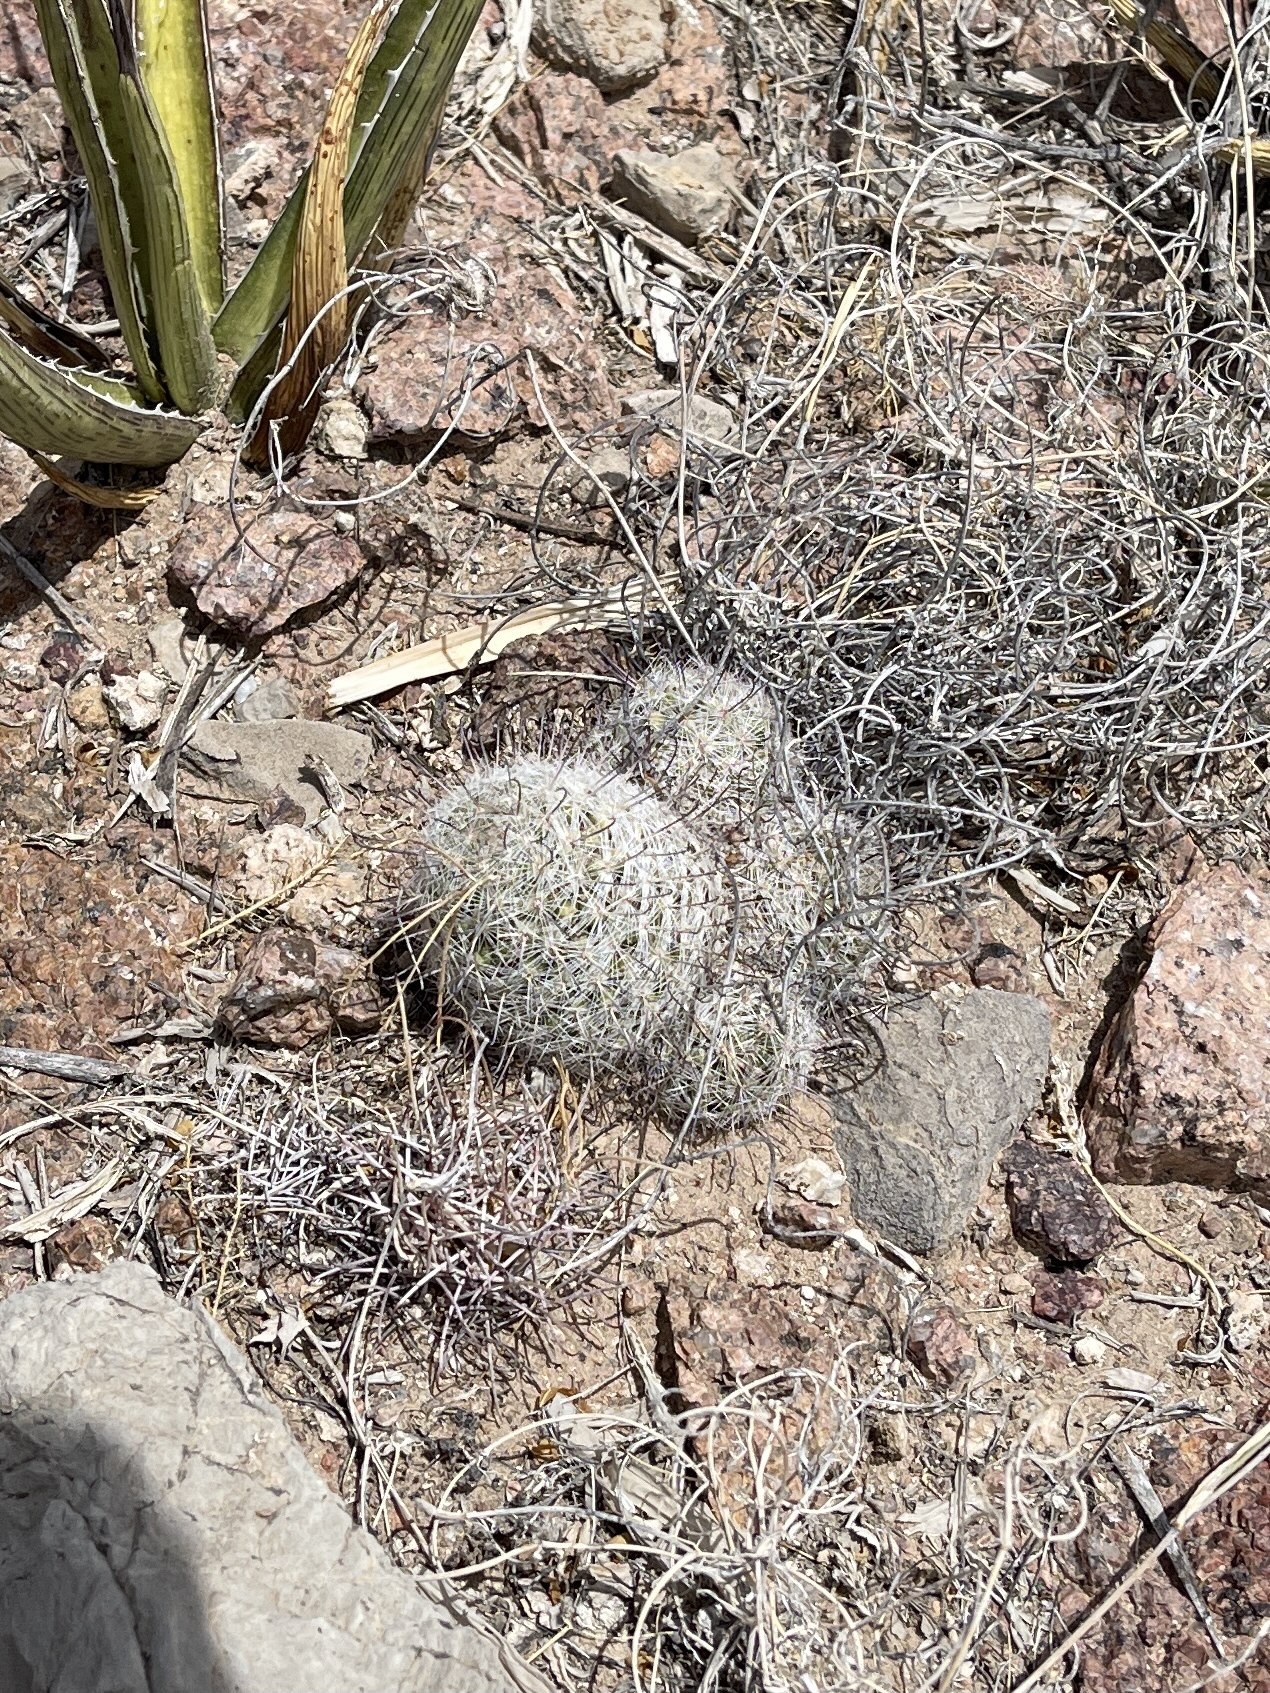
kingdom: Plantae
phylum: Tracheophyta
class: Magnoliopsida
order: Caryophyllales
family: Cactaceae
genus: Cochemiea
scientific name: Cochemiea grahamii
